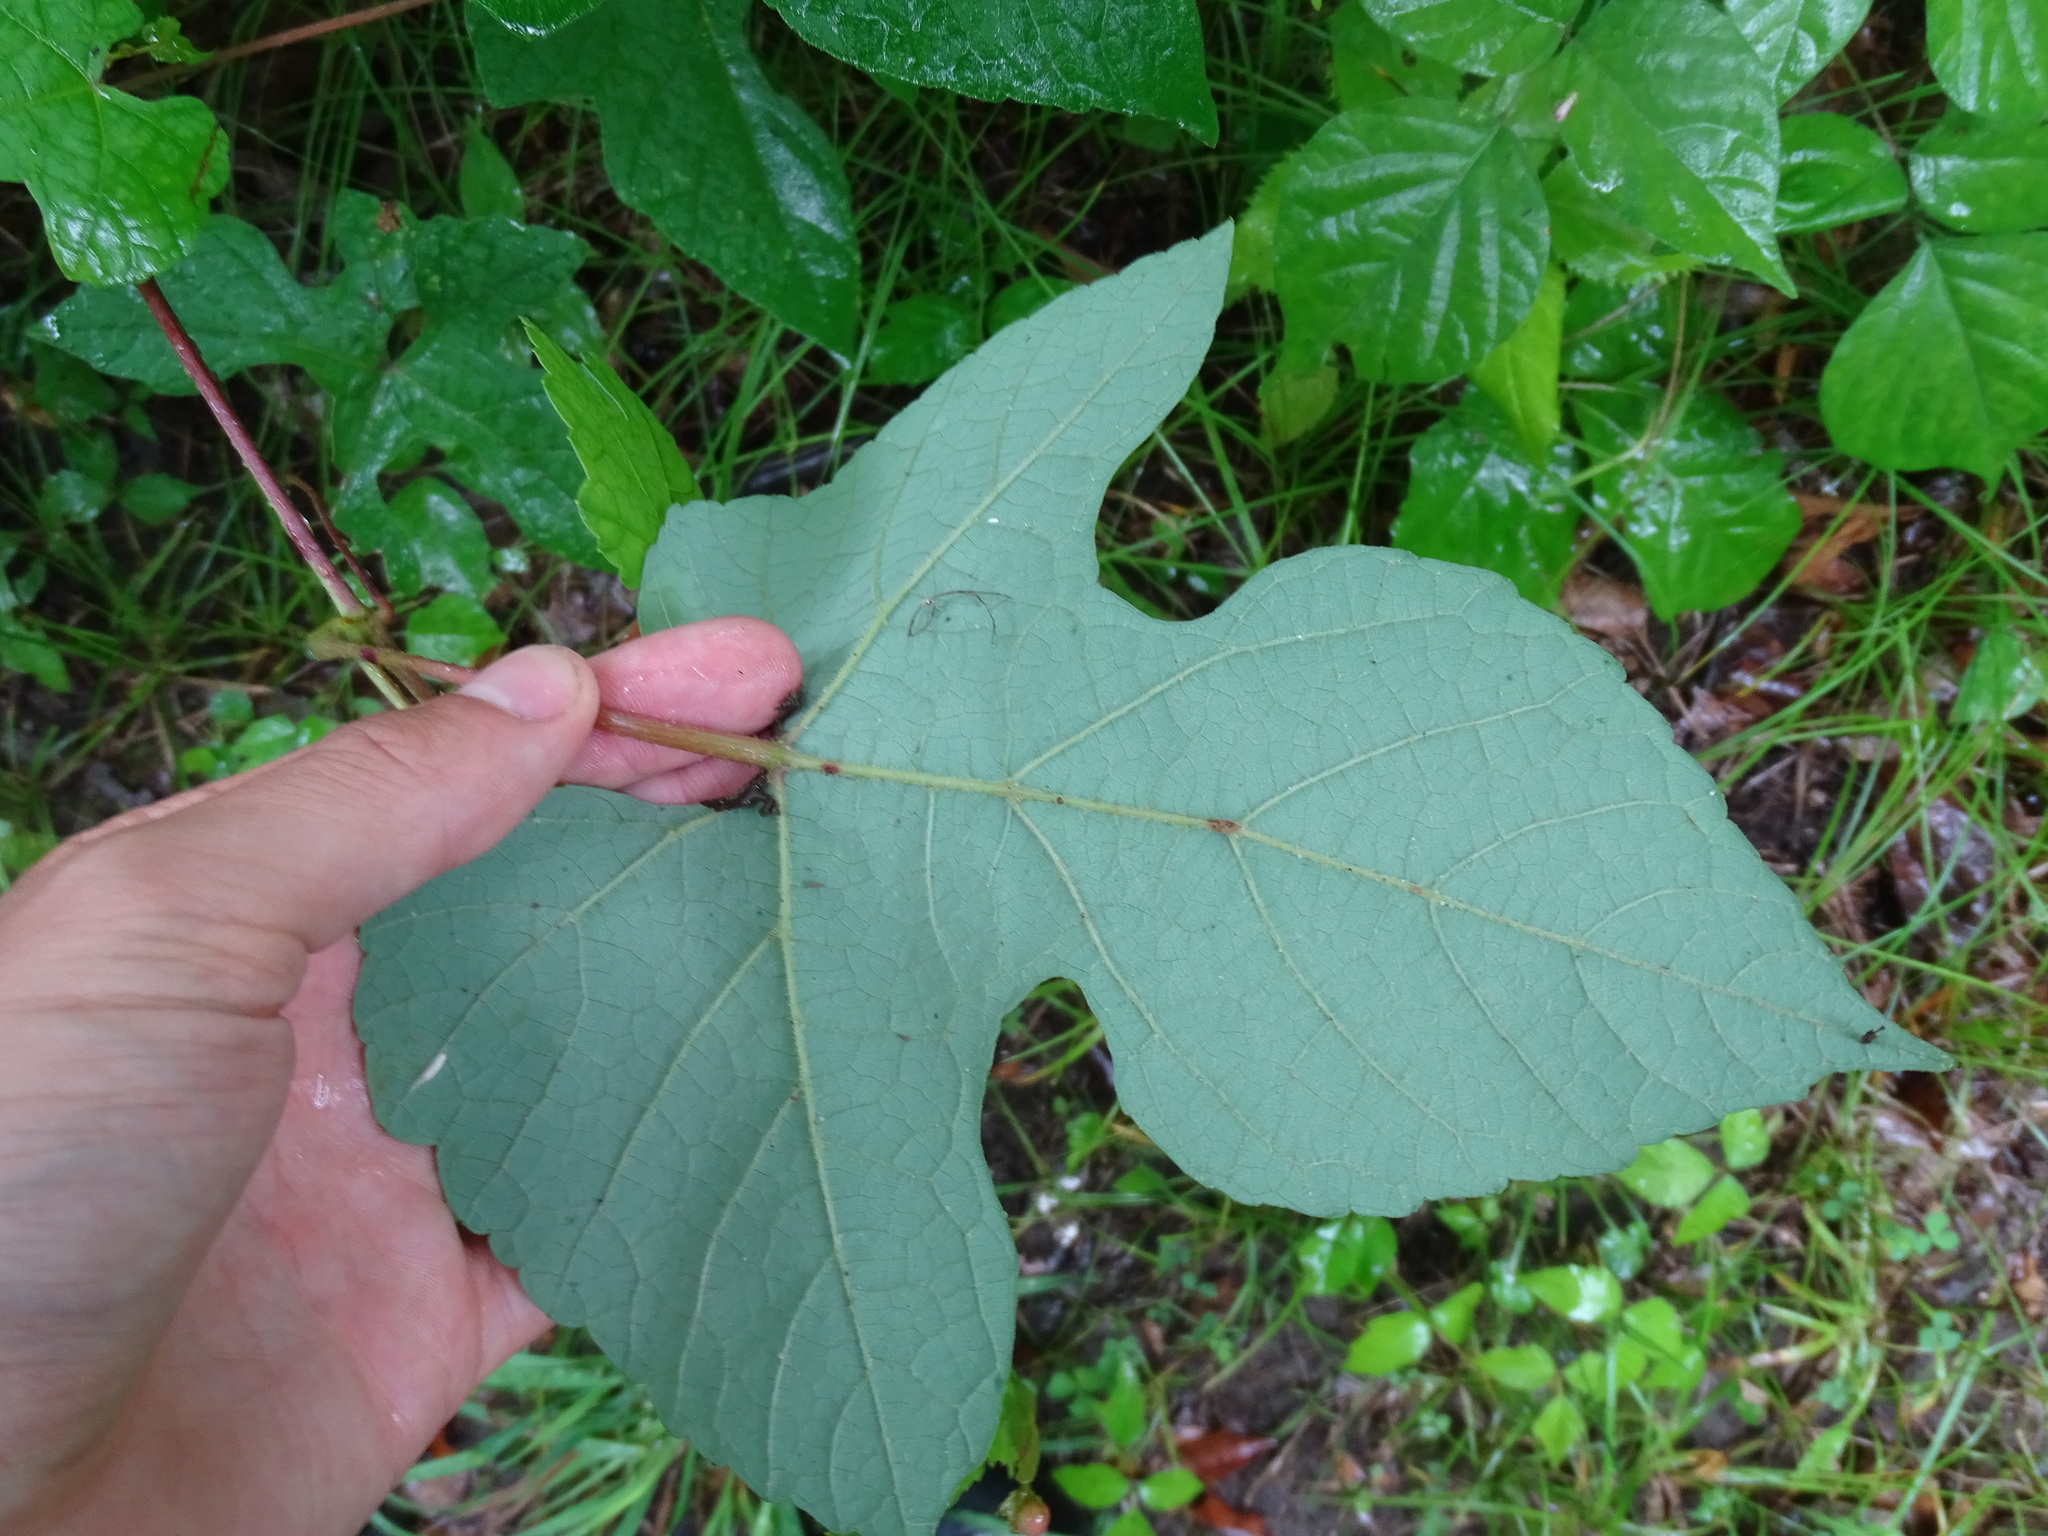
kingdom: Plantae
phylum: Tracheophyta
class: Magnoliopsida
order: Vitales
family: Vitaceae
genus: Vitis
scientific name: Vitis aestivalis
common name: Pigeon grape
